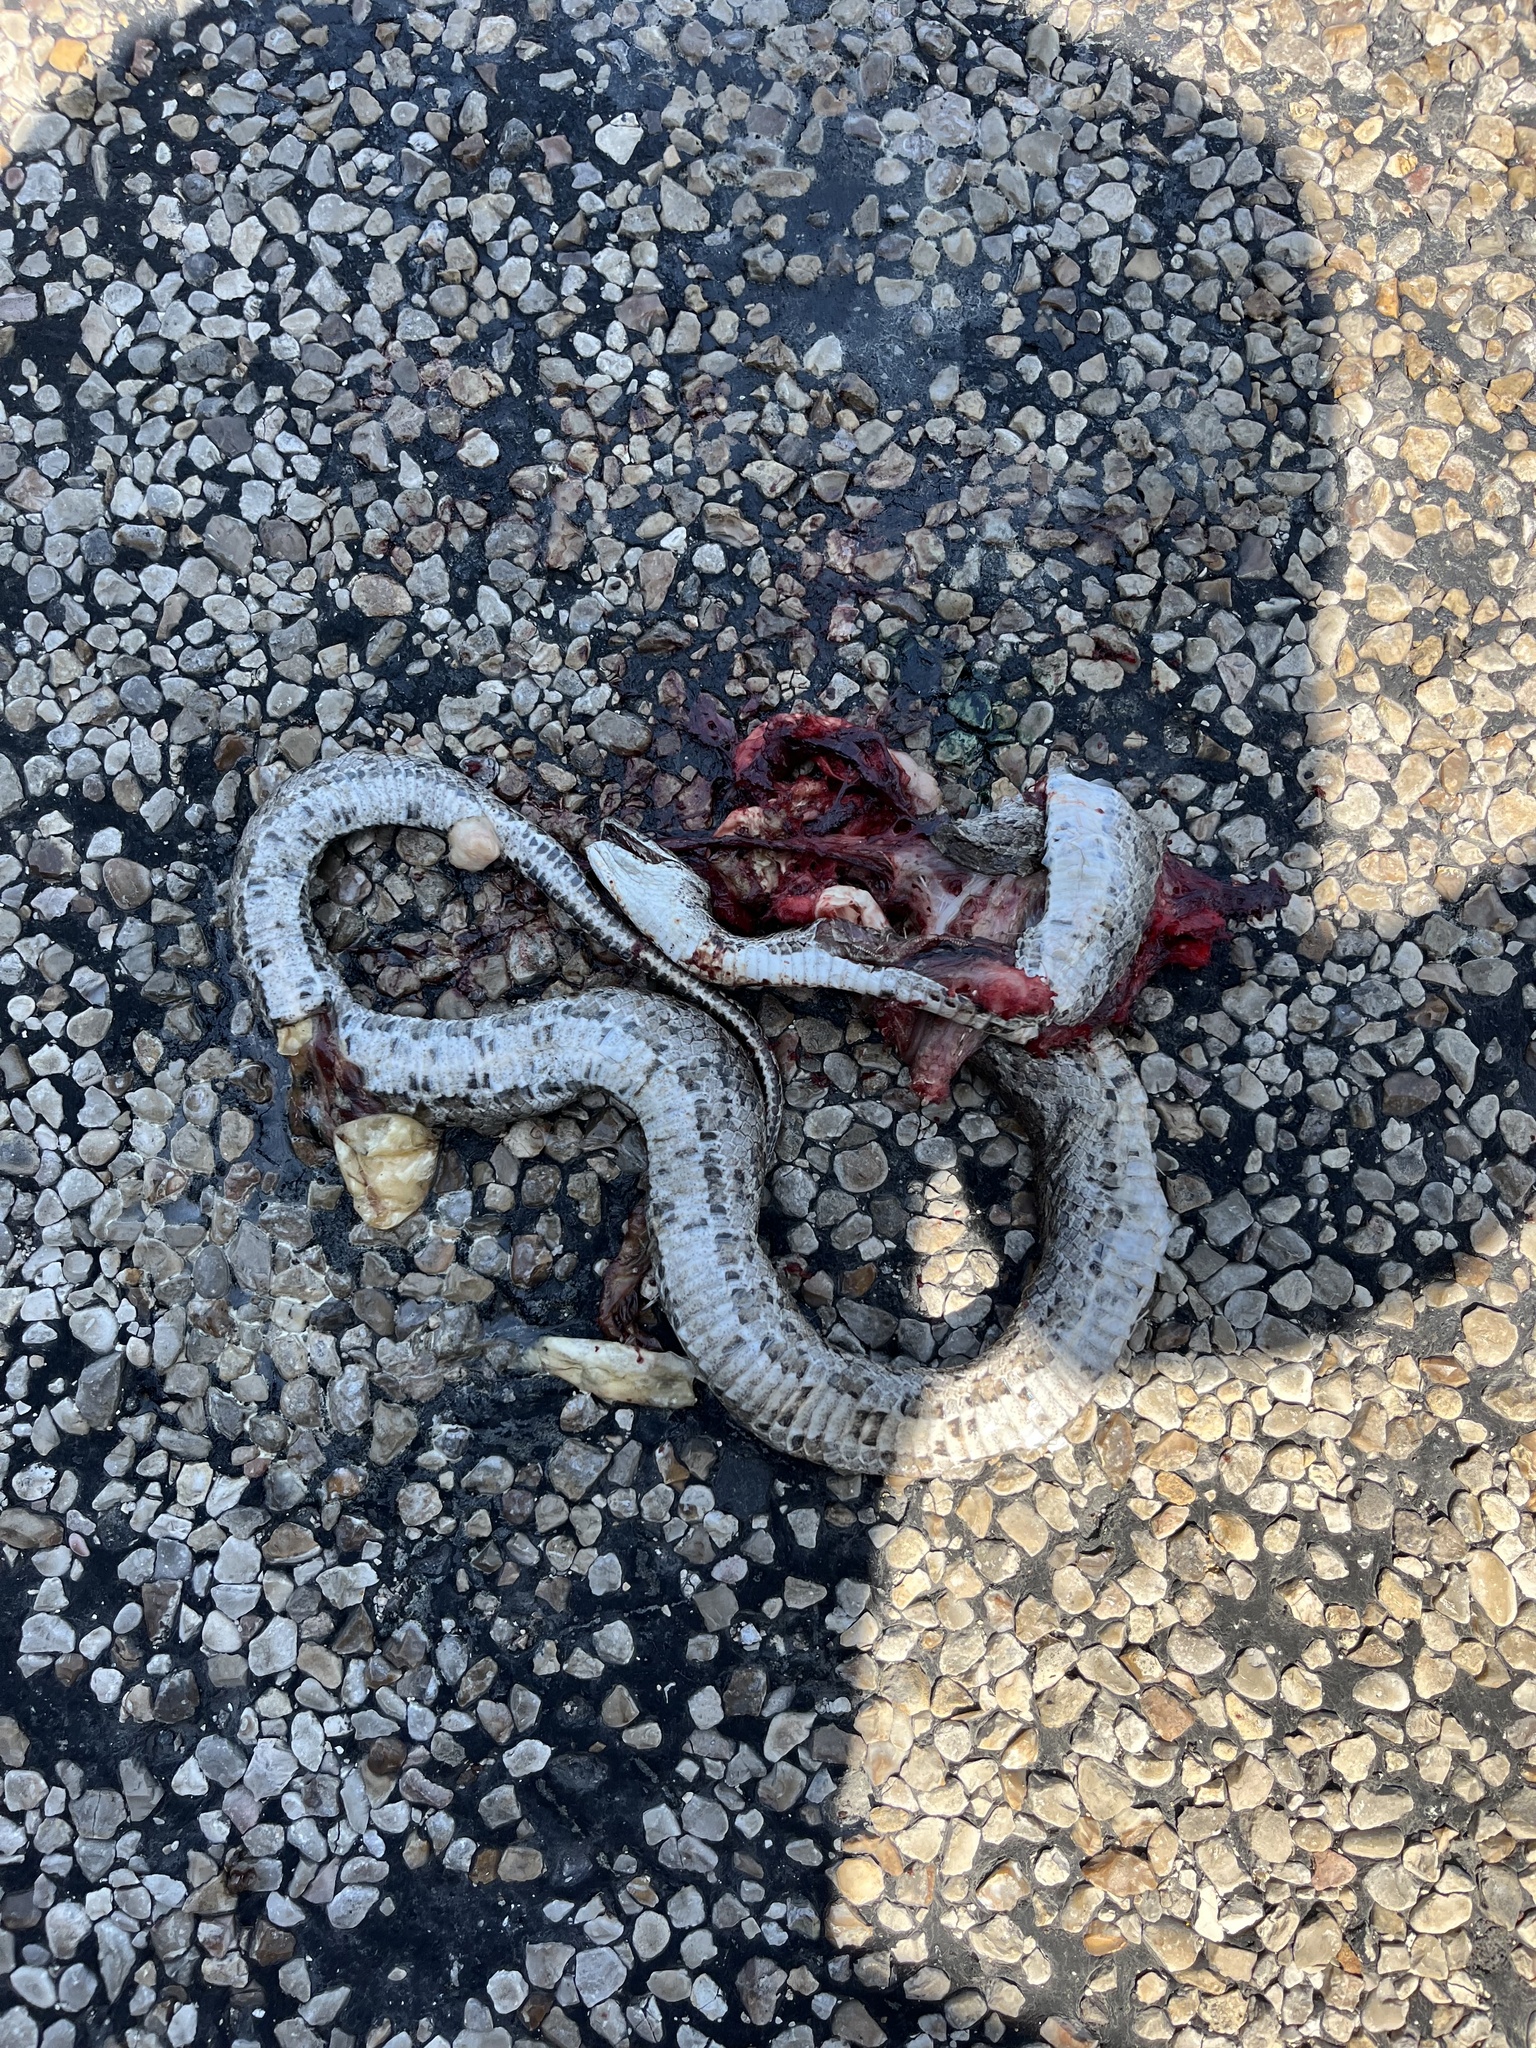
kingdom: Animalia
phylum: Chordata
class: Squamata
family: Colubridae
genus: Pantherophis
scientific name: Pantherophis emoryi
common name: Great plains rat snake
